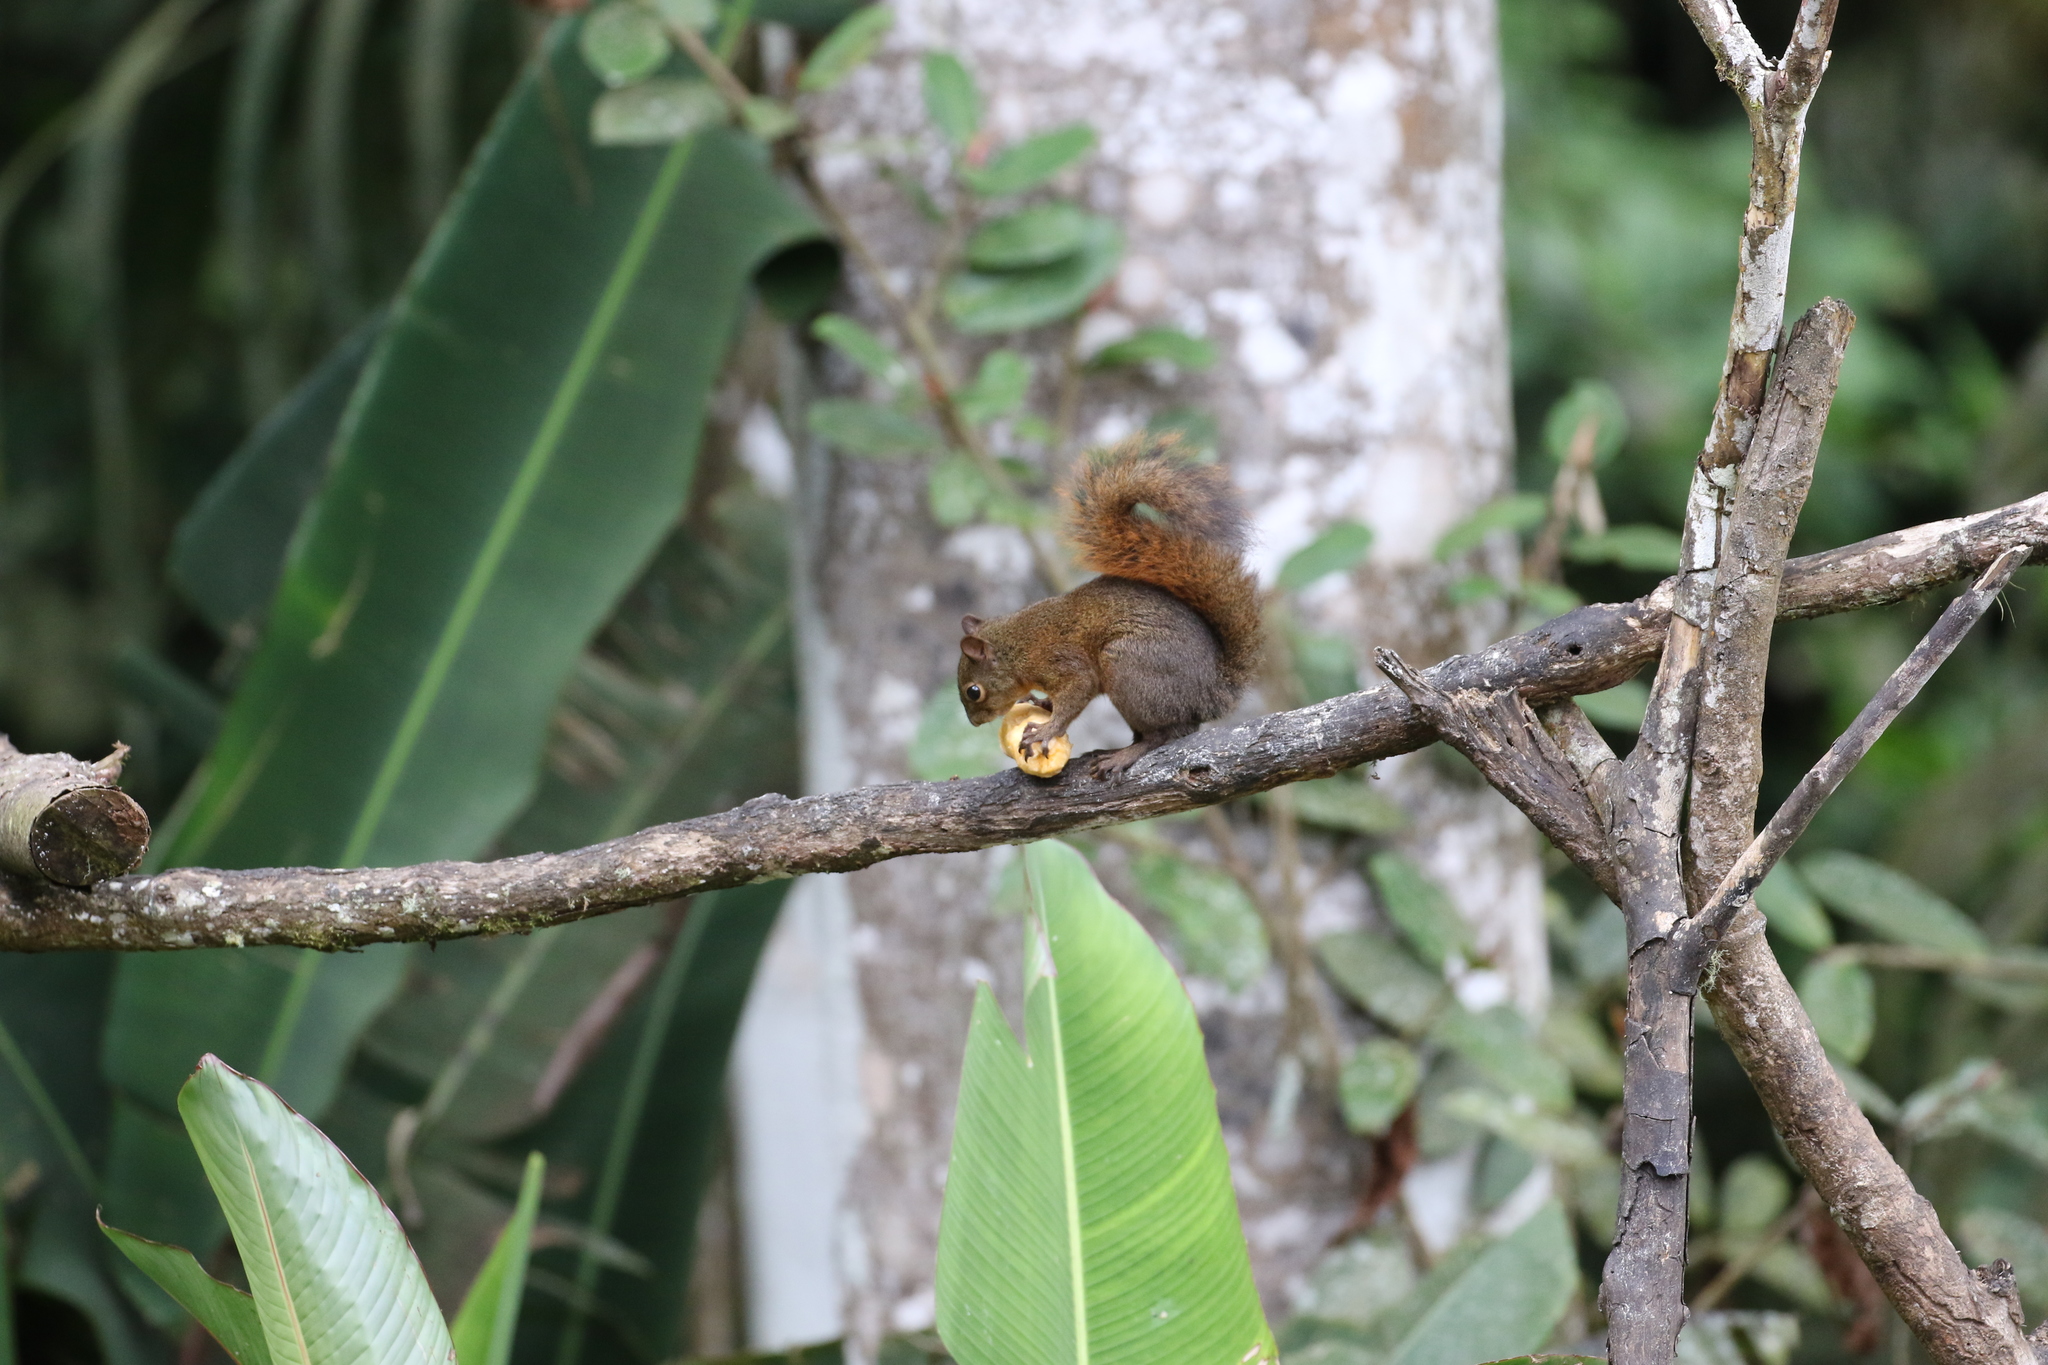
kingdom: Animalia
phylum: Chordata
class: Mammalia
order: Rodentia
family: Sciuridae
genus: Sciurus
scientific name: Sciurus granatensis
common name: Red-tailed squirrel
